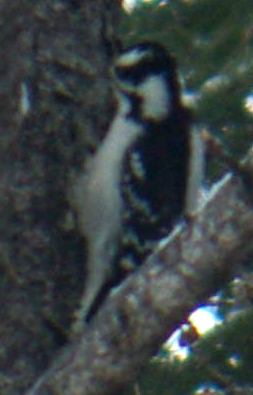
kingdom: Animalia
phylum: Chordata
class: Aves
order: Piciformes
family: Picidae
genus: Dryobates
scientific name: Dryobates pubescens
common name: Downy woodpecker
